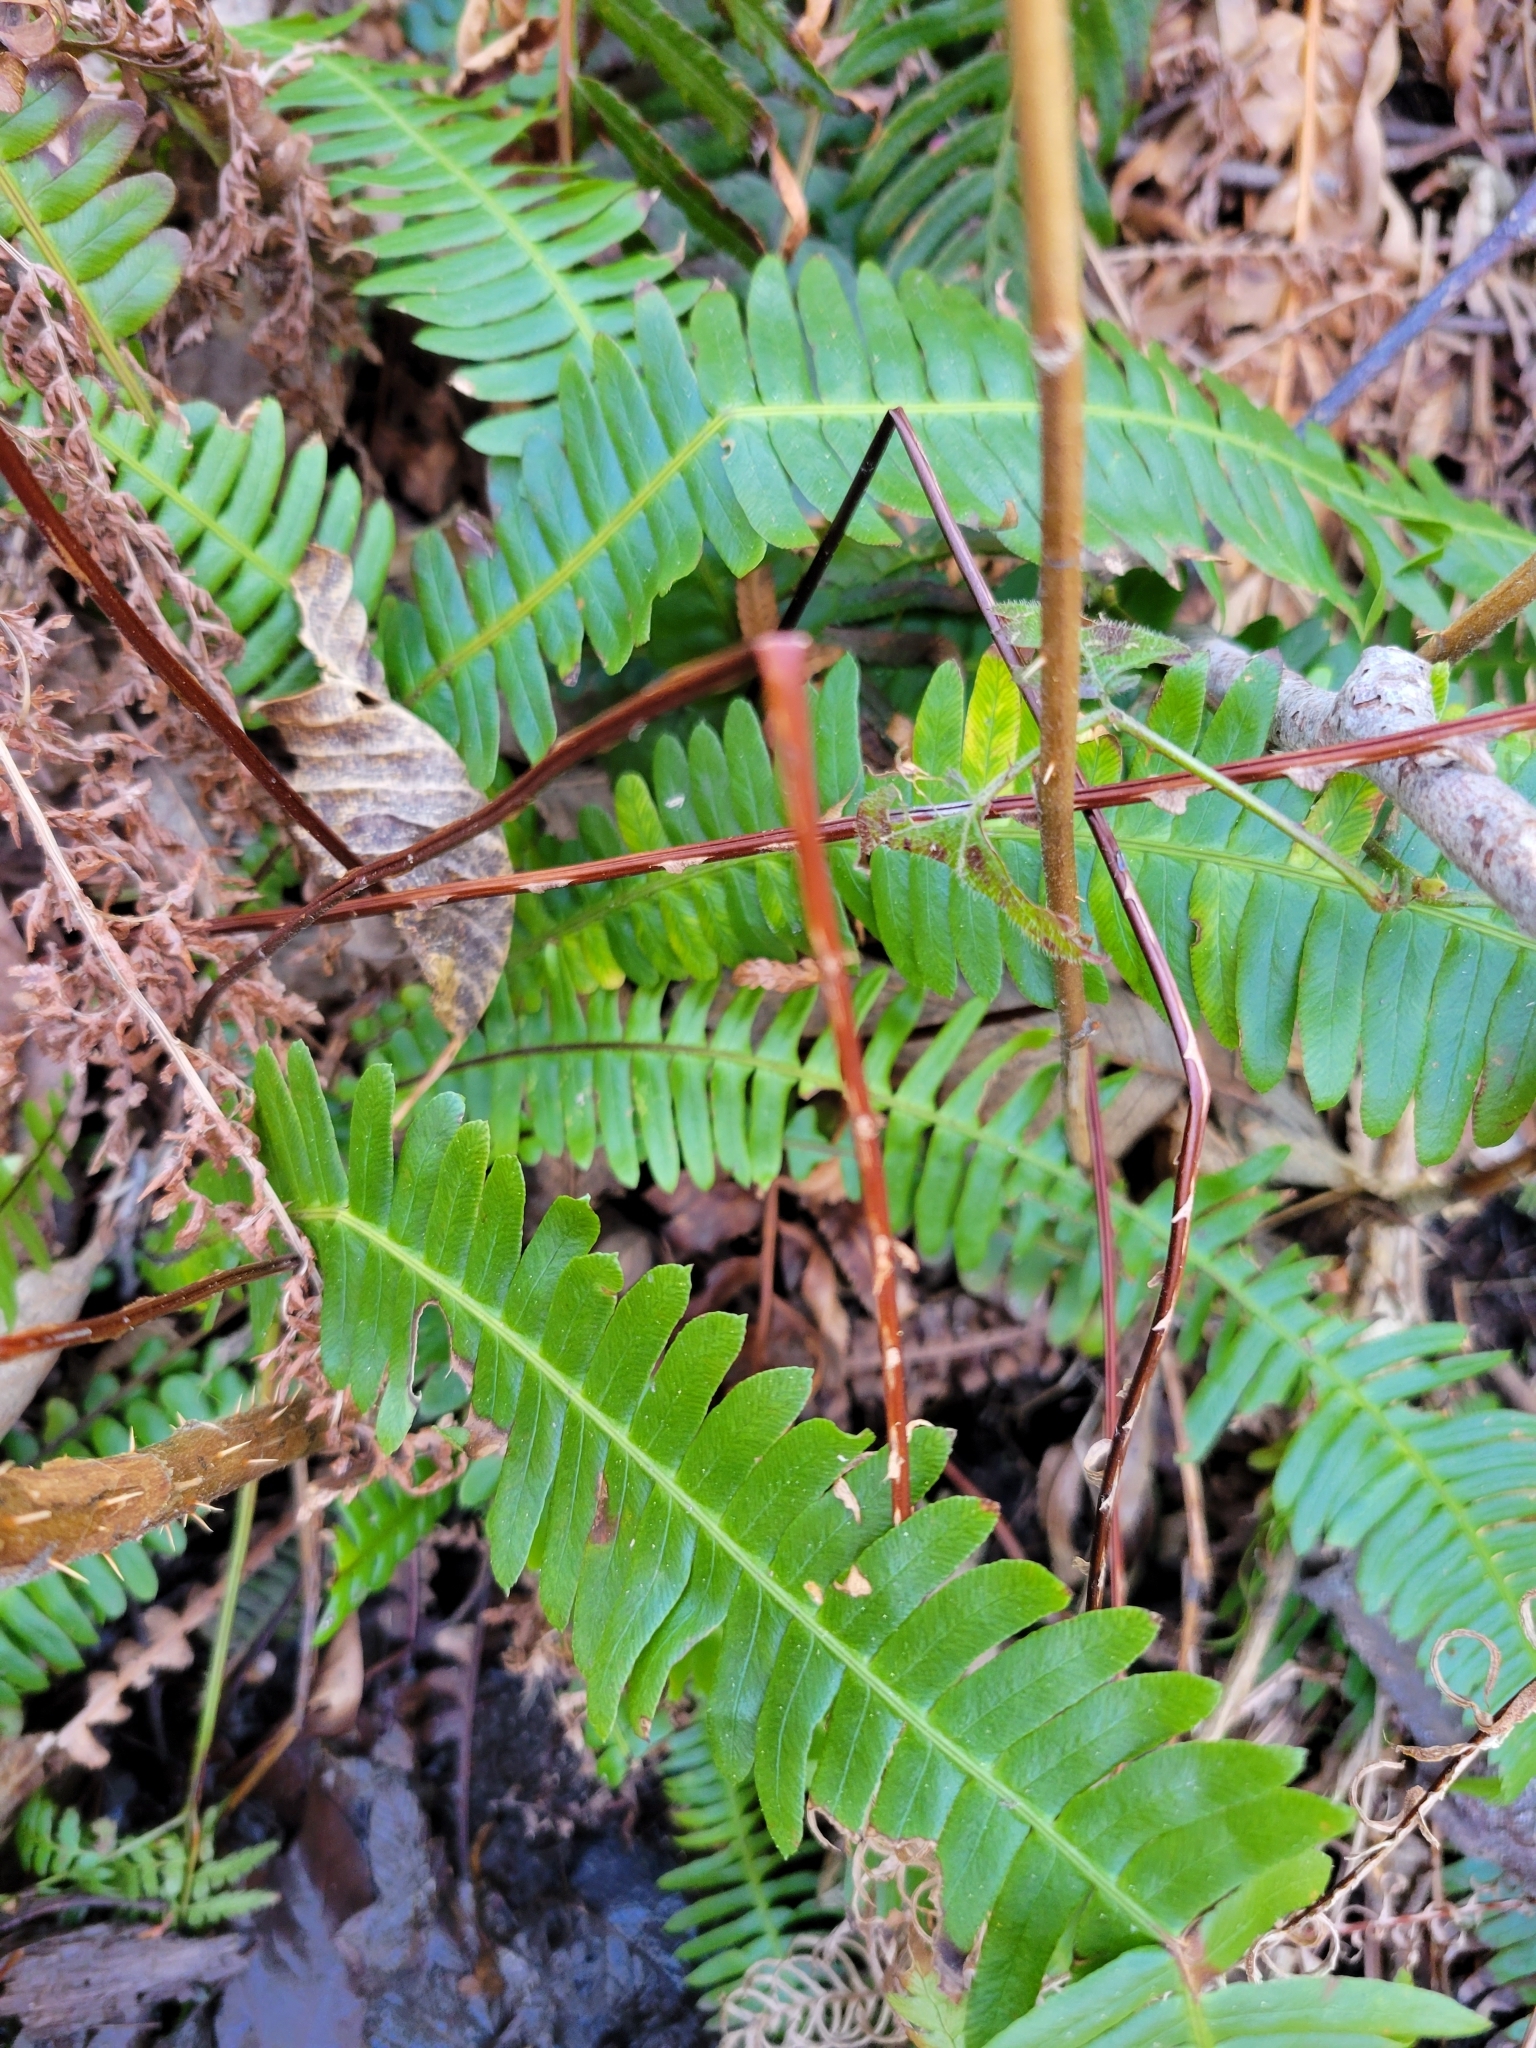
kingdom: Plantae
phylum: Tracheophyta
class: Polypodiopsida
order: Polypodiales
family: Blechnaceae
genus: Struthiopteris
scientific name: Struthiopteris spicant
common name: Deer fern
